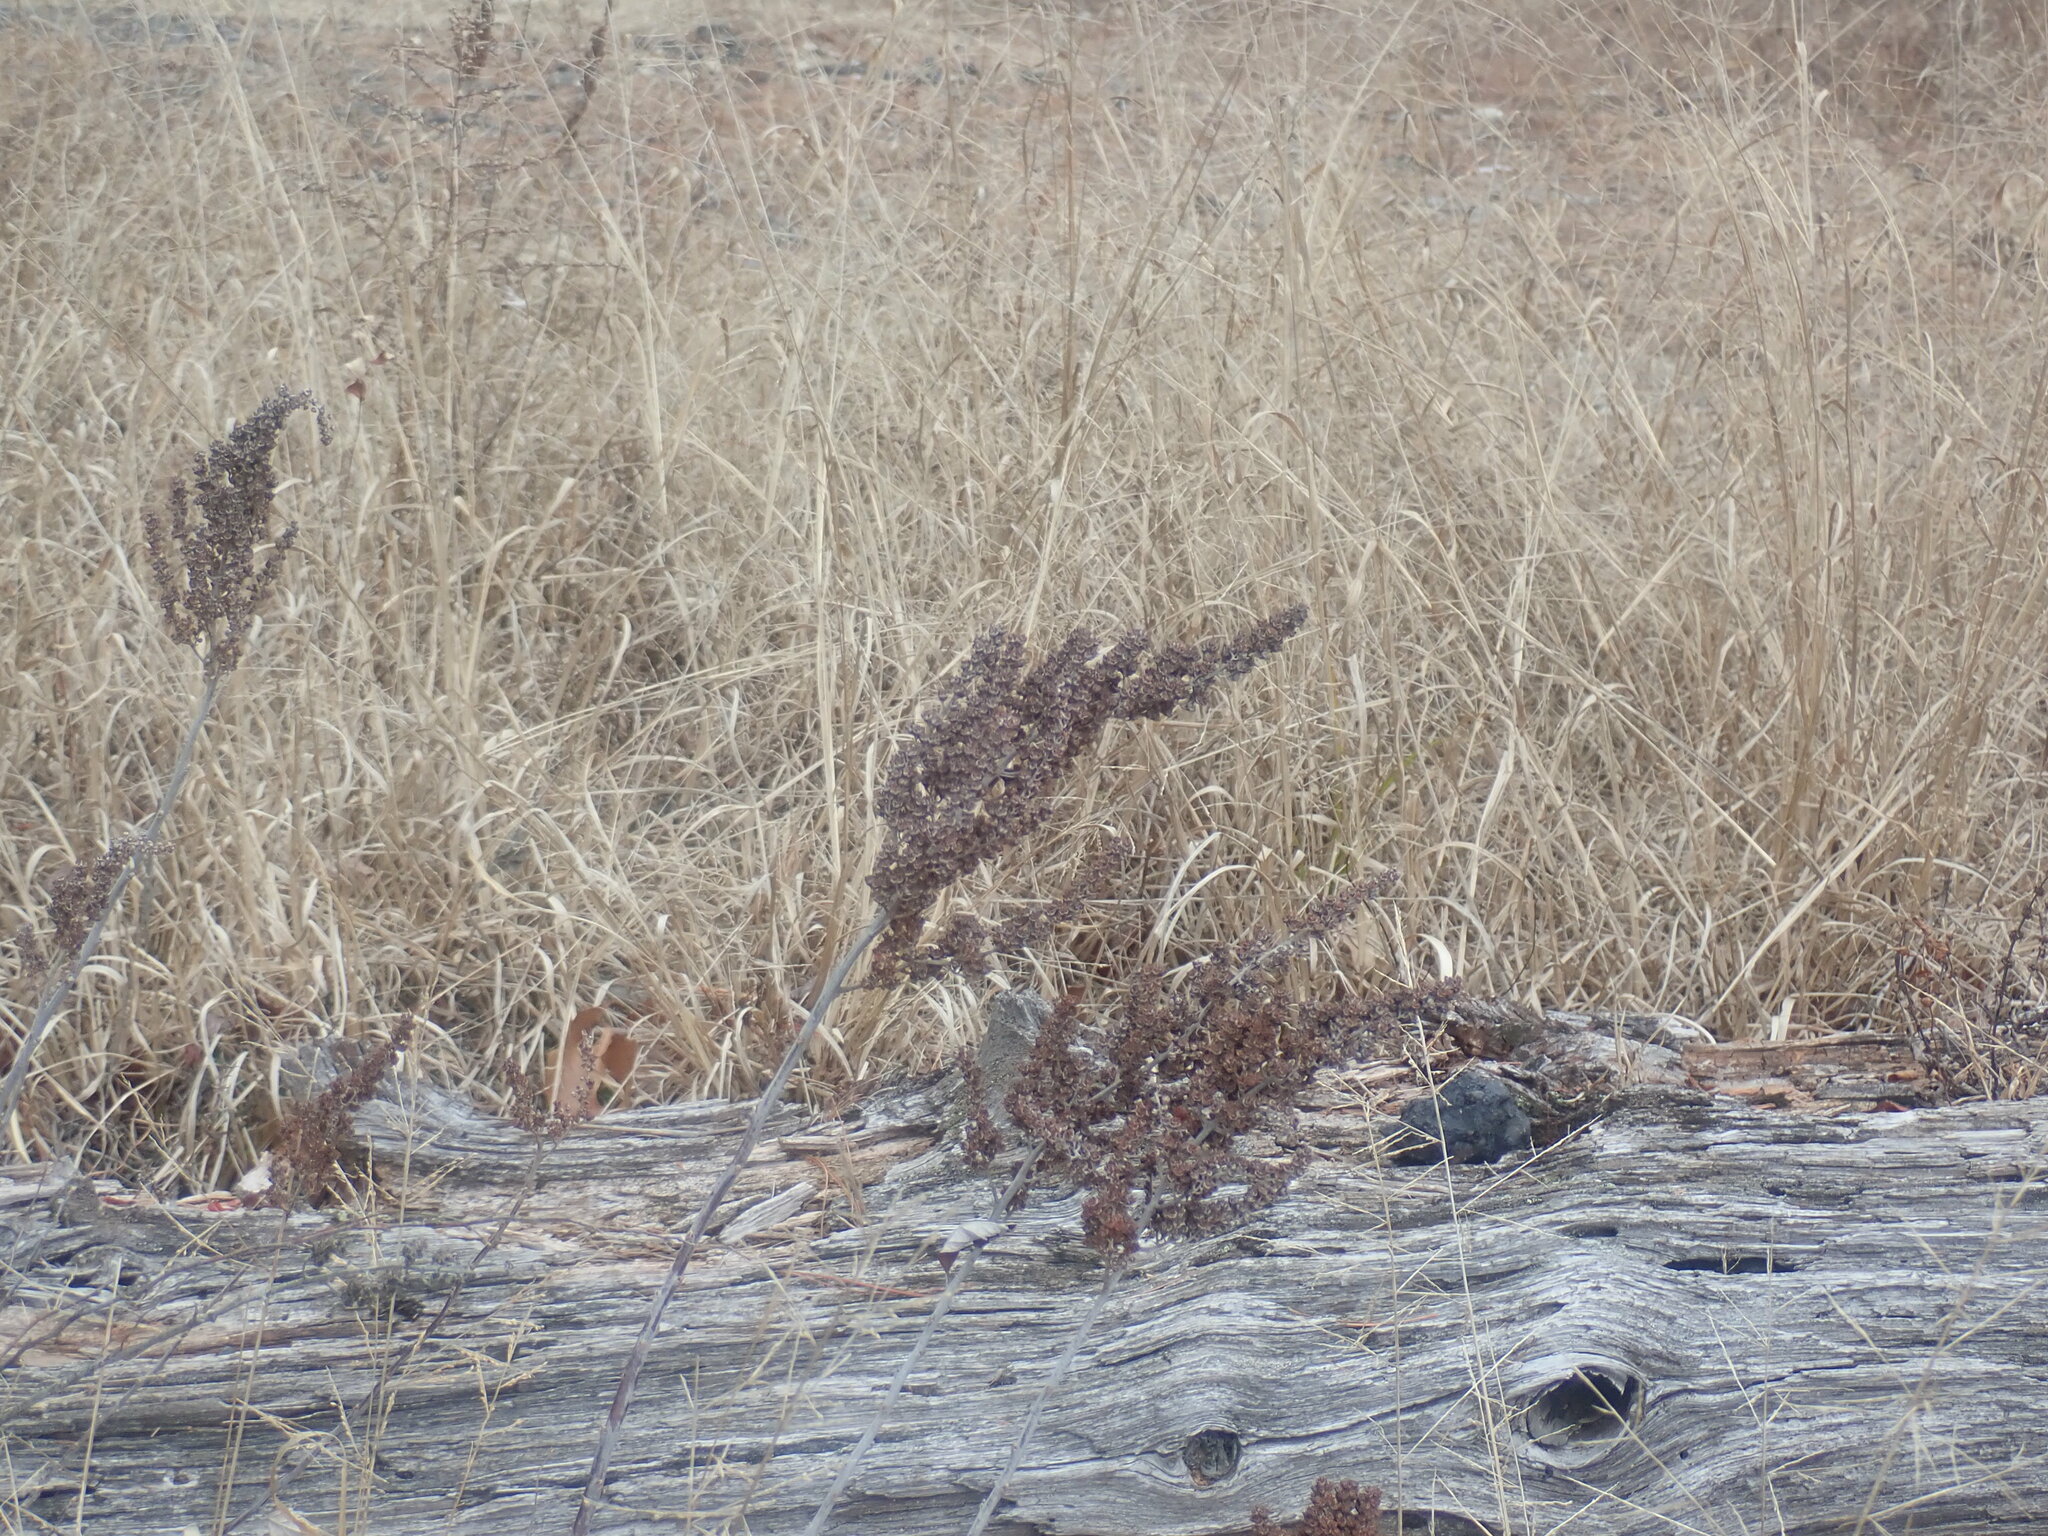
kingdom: Plantae
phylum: Tracheophyta
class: Magnoliopsida
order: Rosales
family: Rosaceae
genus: Spiraea
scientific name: Spiraea tomentosa
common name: Hardhack
